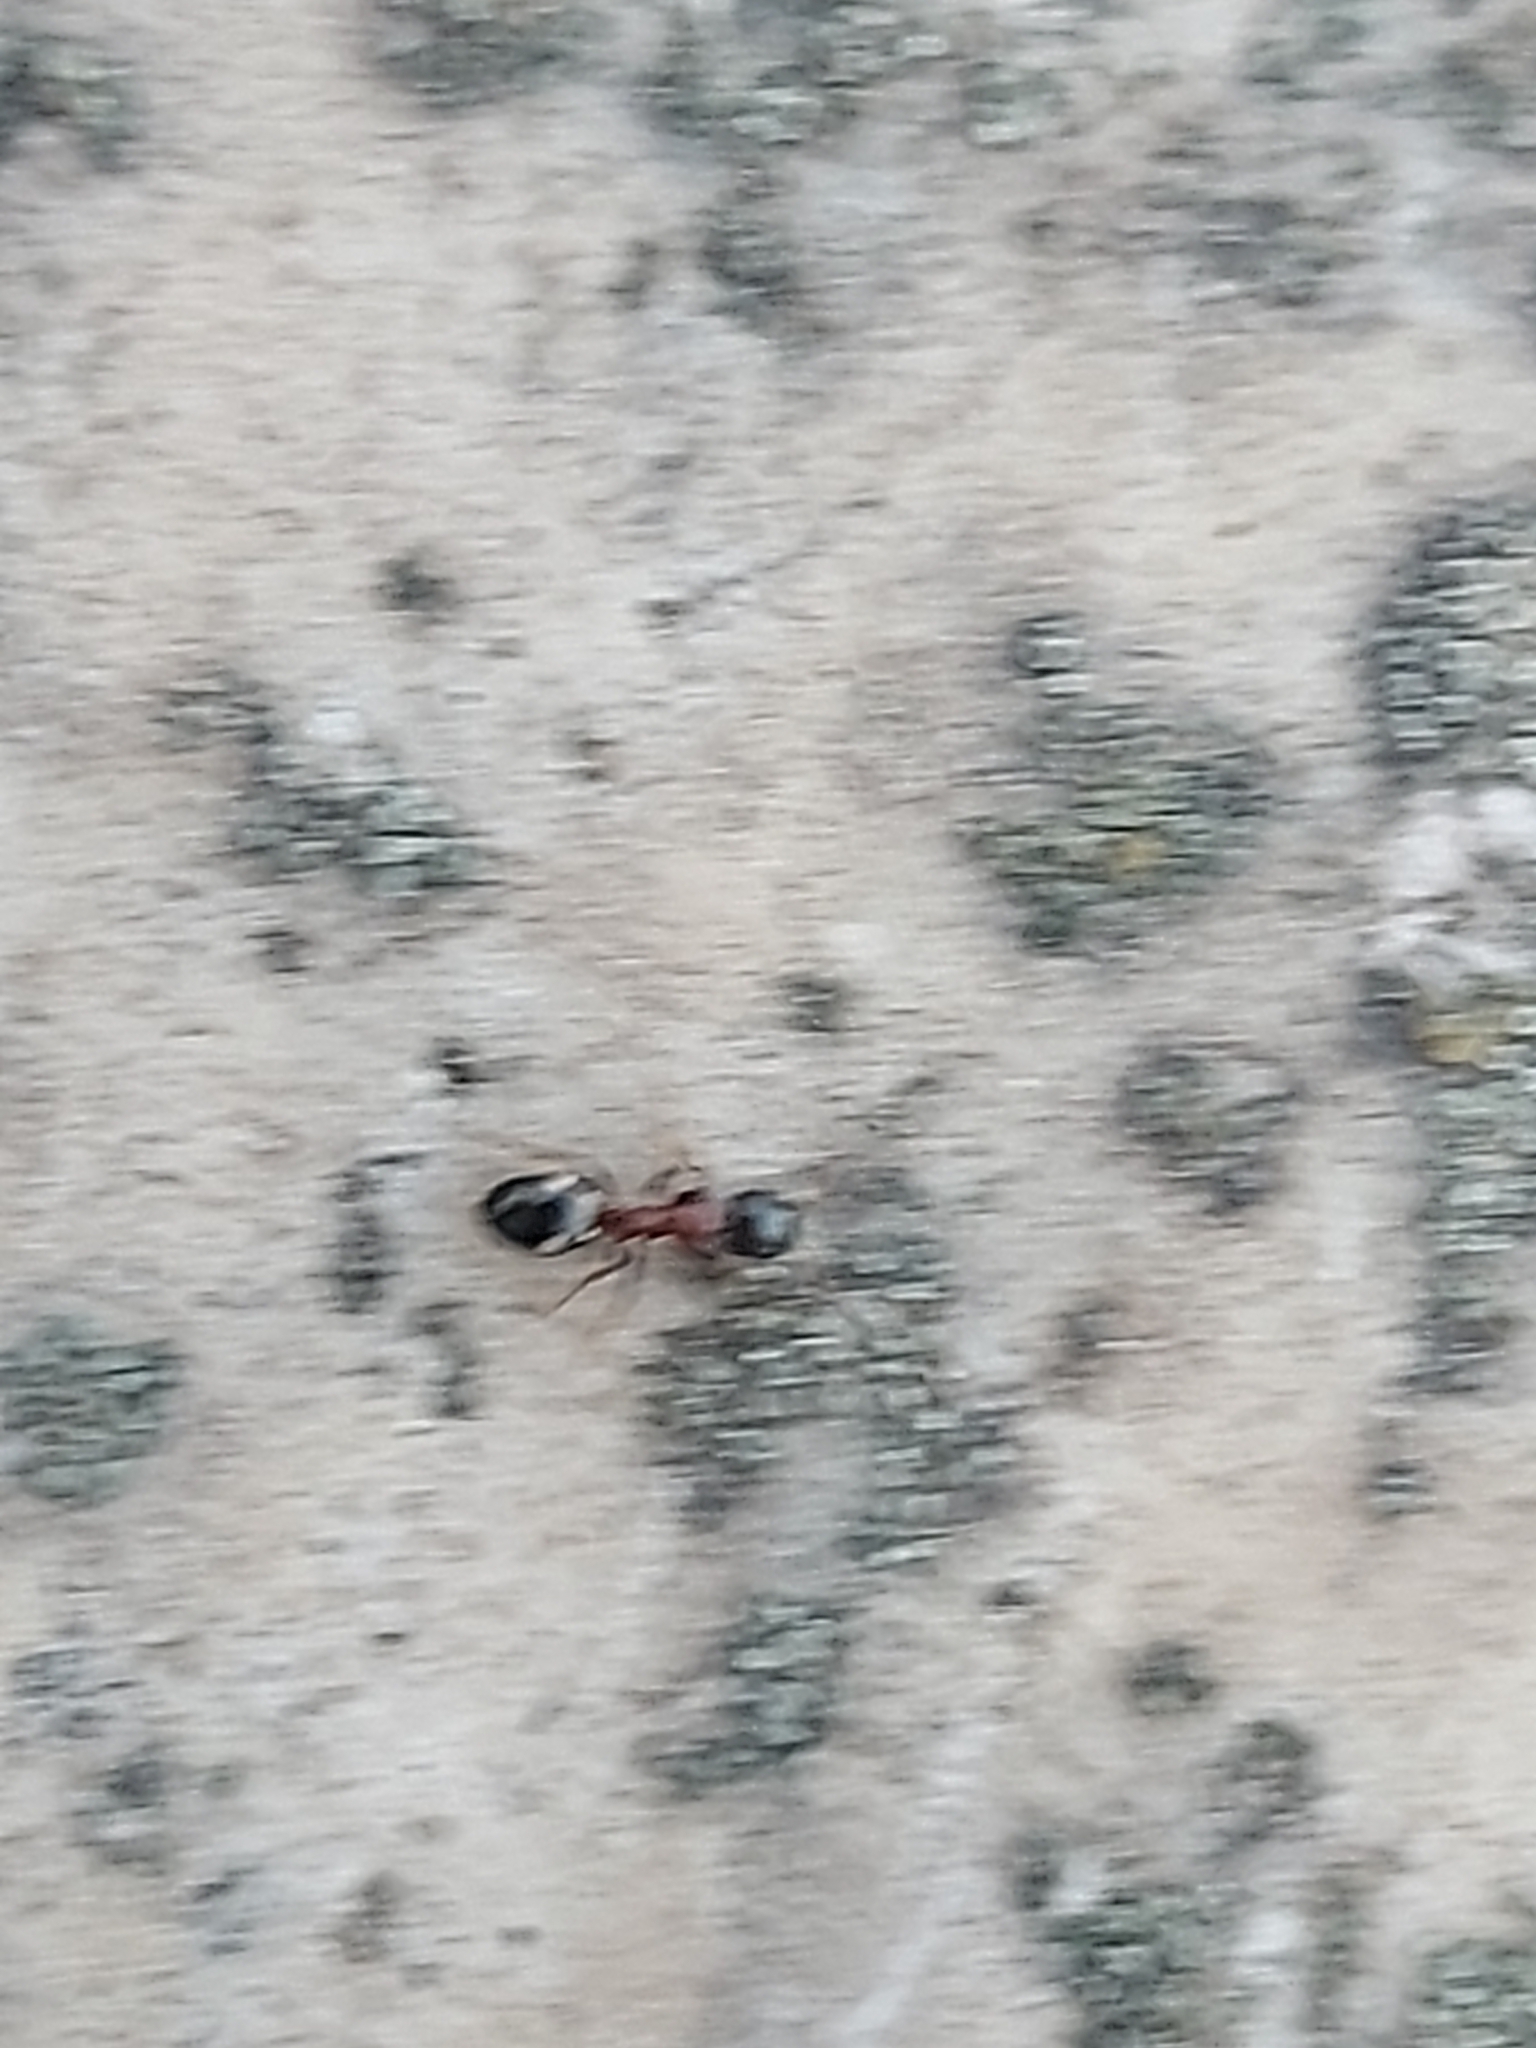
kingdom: Animalia
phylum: Arthropoda
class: Insecta
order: Hymenoptera
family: Formicidae
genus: Dolichoderus
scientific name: Dolichoderus quadripunctatus
